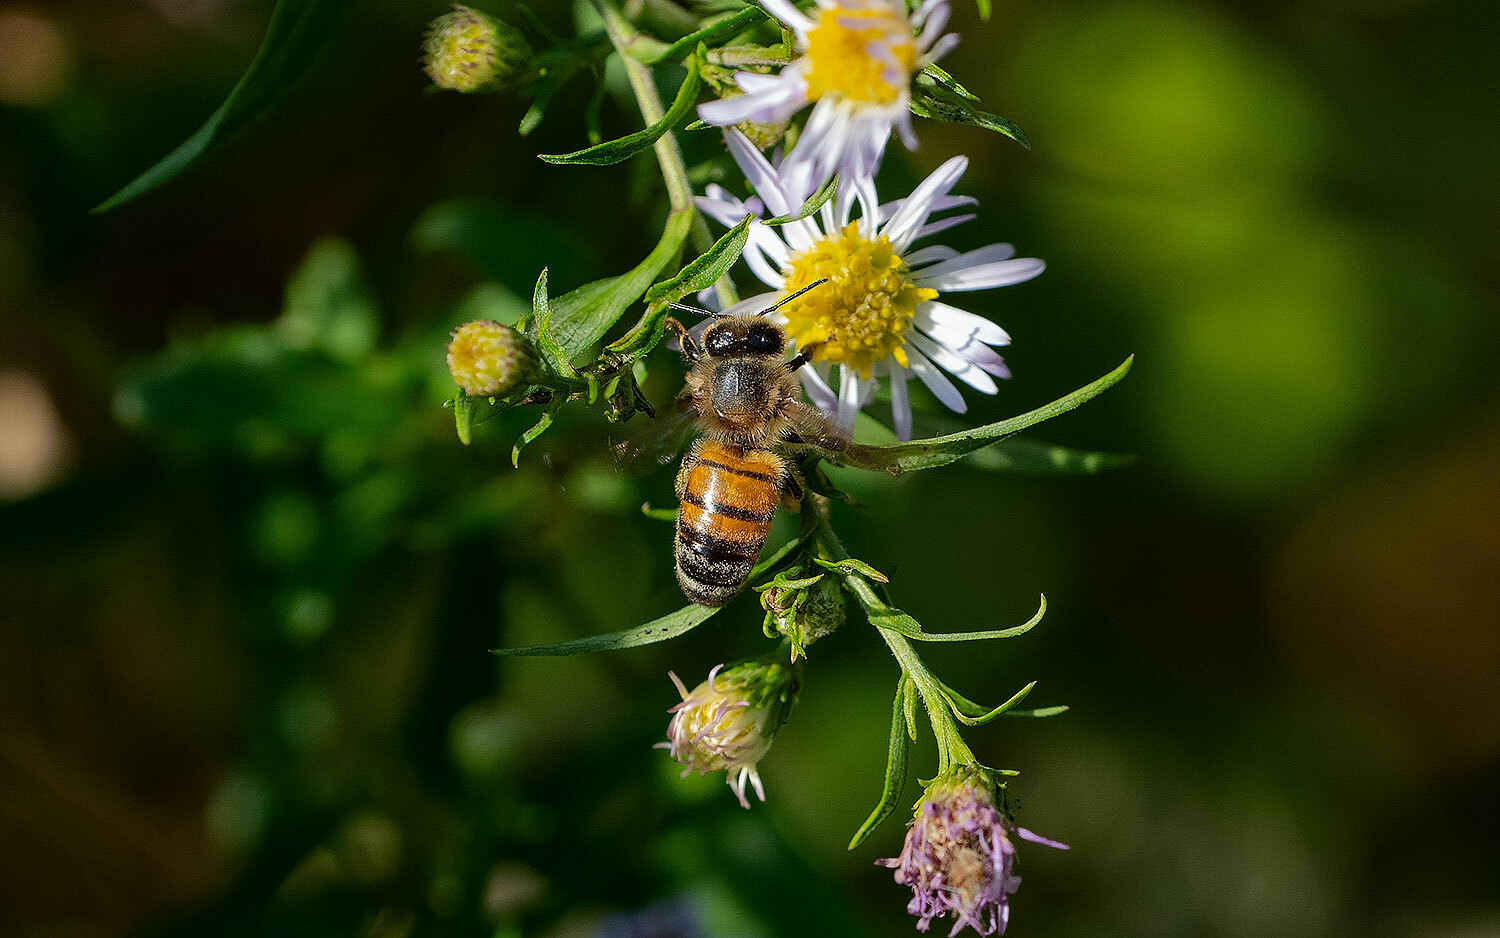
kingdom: Animalia
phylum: Arthropoda
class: Insecta
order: Hymenoptera
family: Apidae
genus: Apis
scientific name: Apis mellifera
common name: Honey bee
